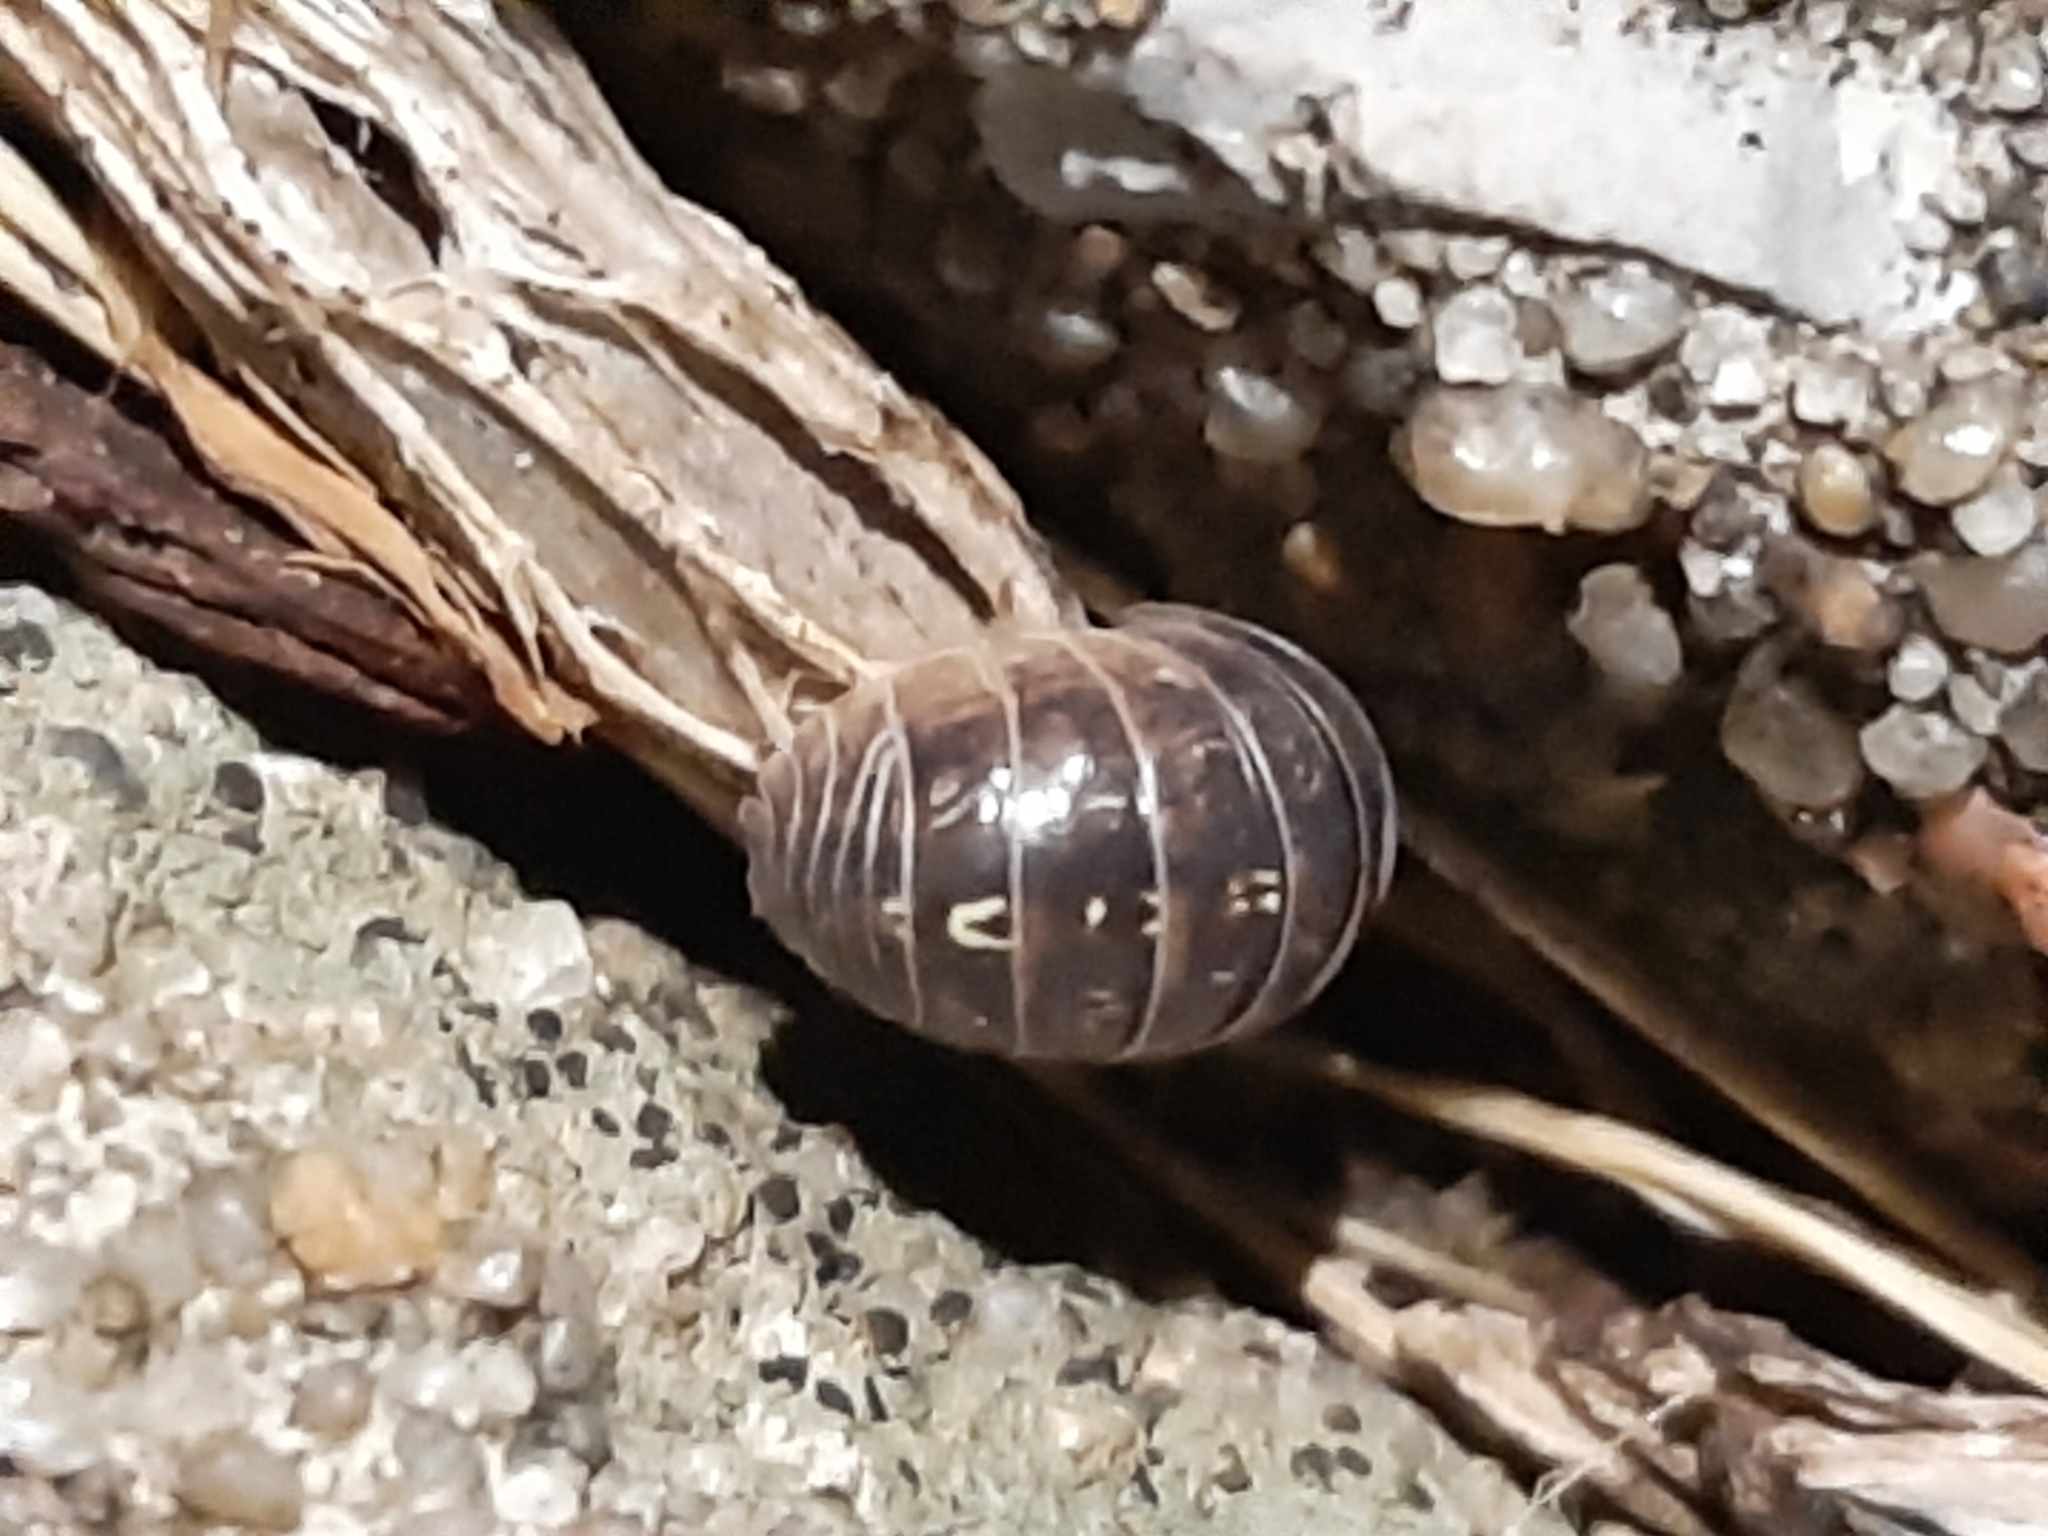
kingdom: Animalia
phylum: Arthropoda
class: Malacostraca
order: Isopoda
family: Armadillidiidae
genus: Armadillidium
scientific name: Armadillidium vulgare
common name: Common pill woodlouse
